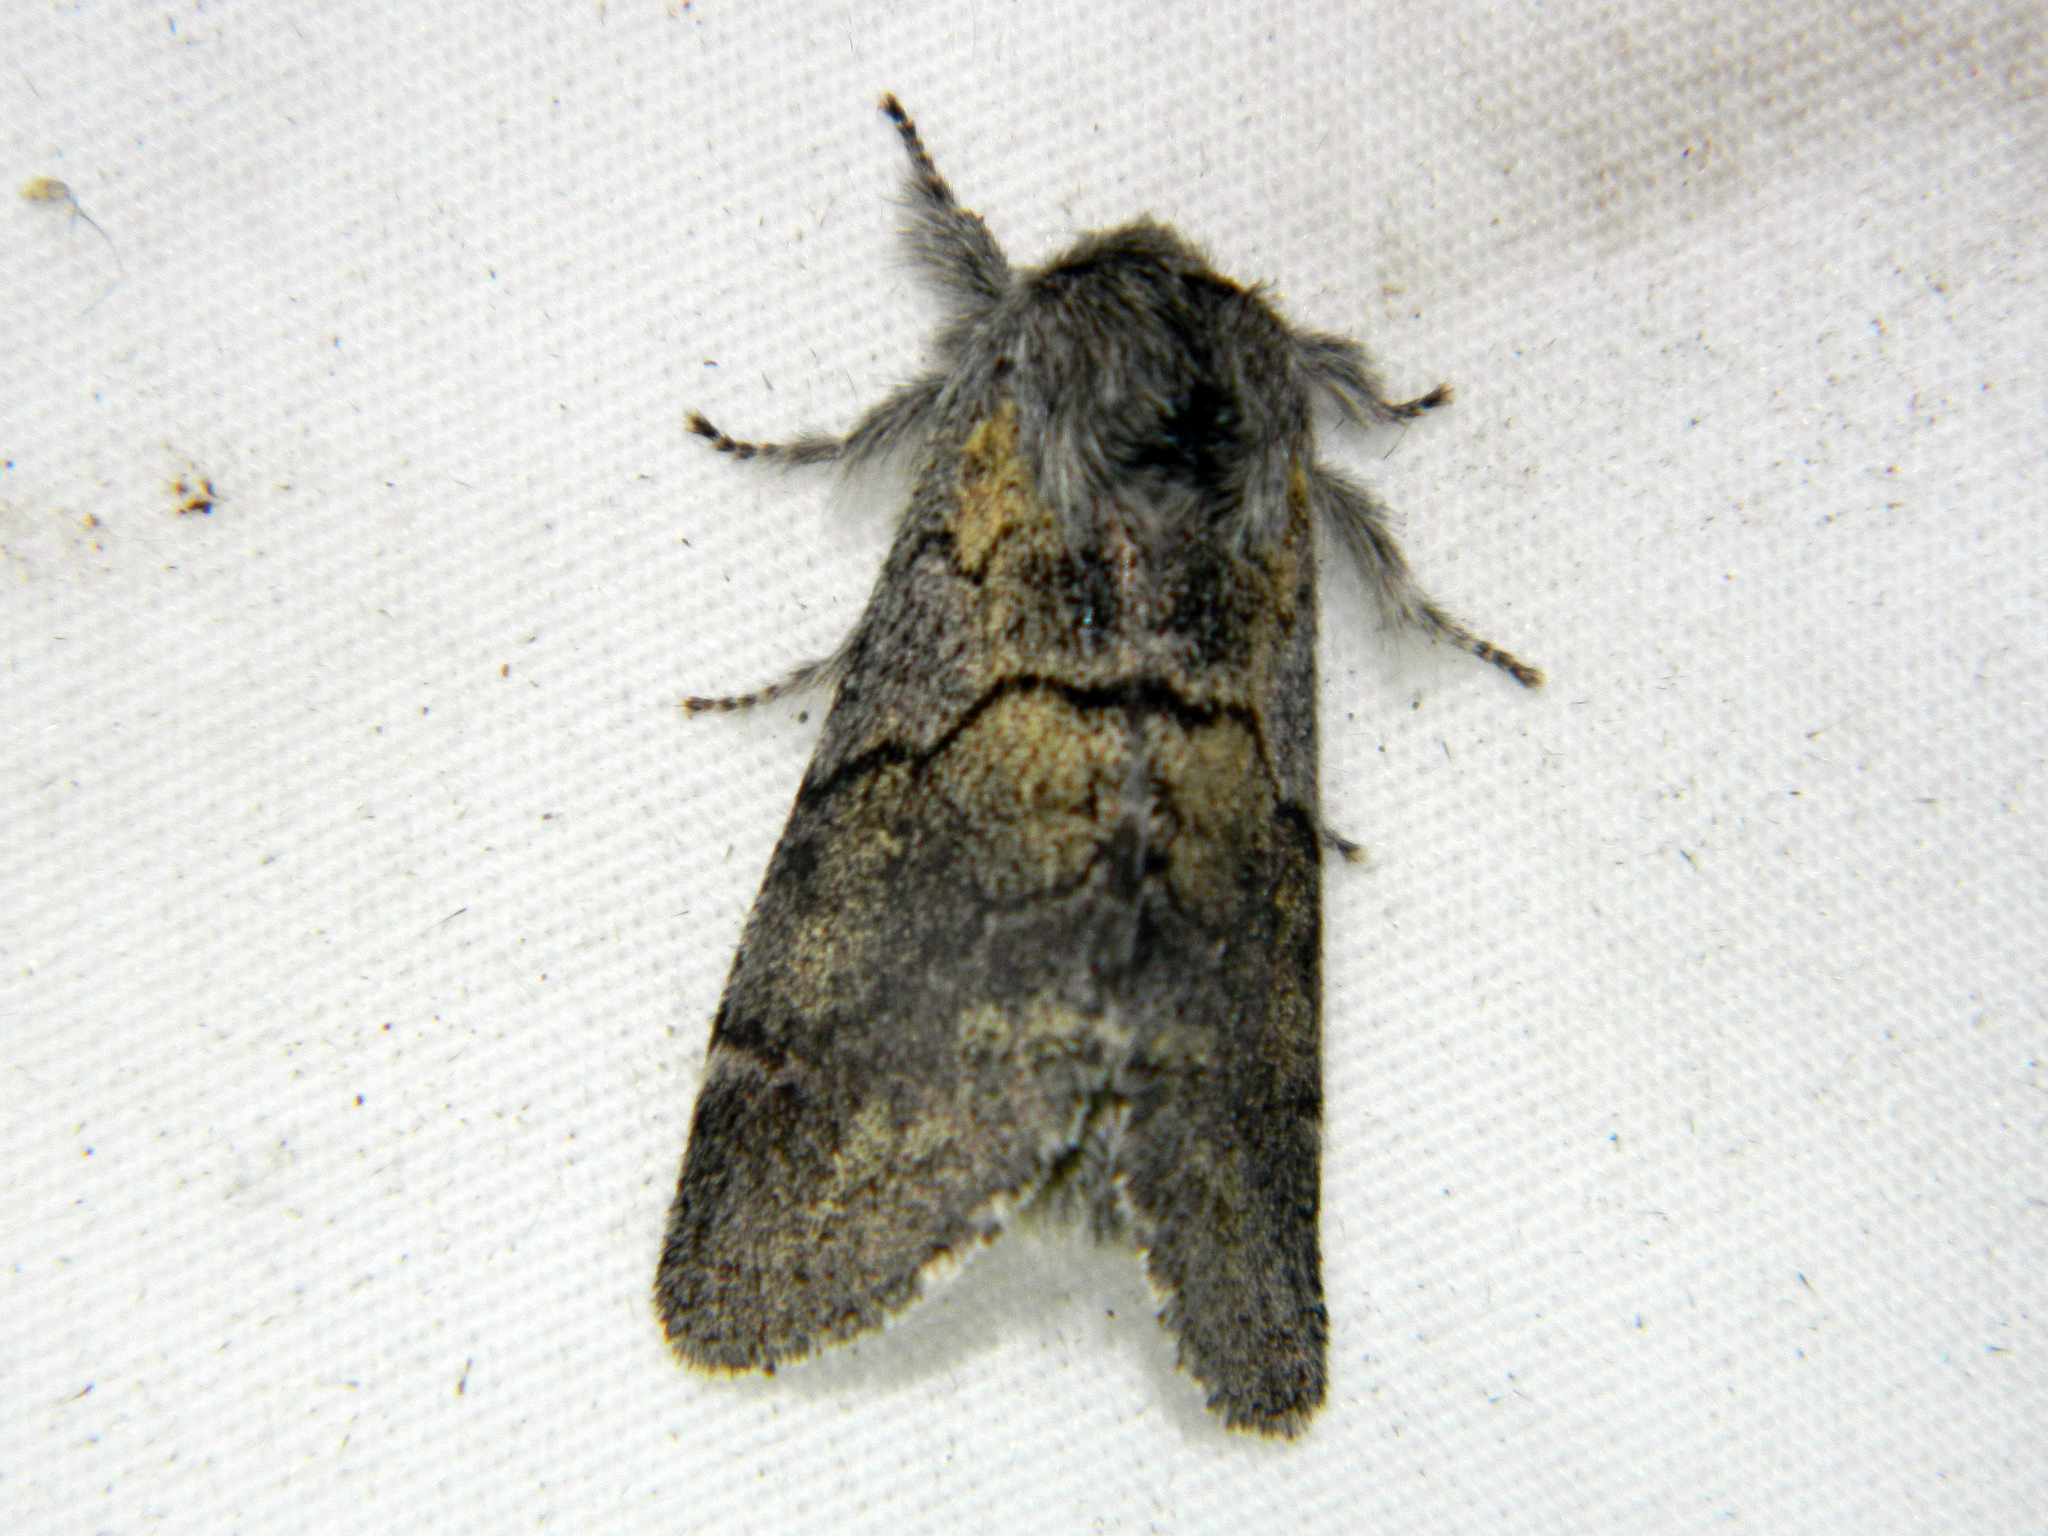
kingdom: Animalia
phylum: Arthropoda
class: Insecta
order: Lepidoptera
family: Notodontidae
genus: Gluphisia
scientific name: Gluphisia lintneri
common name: Lintner's gluphisia moth
